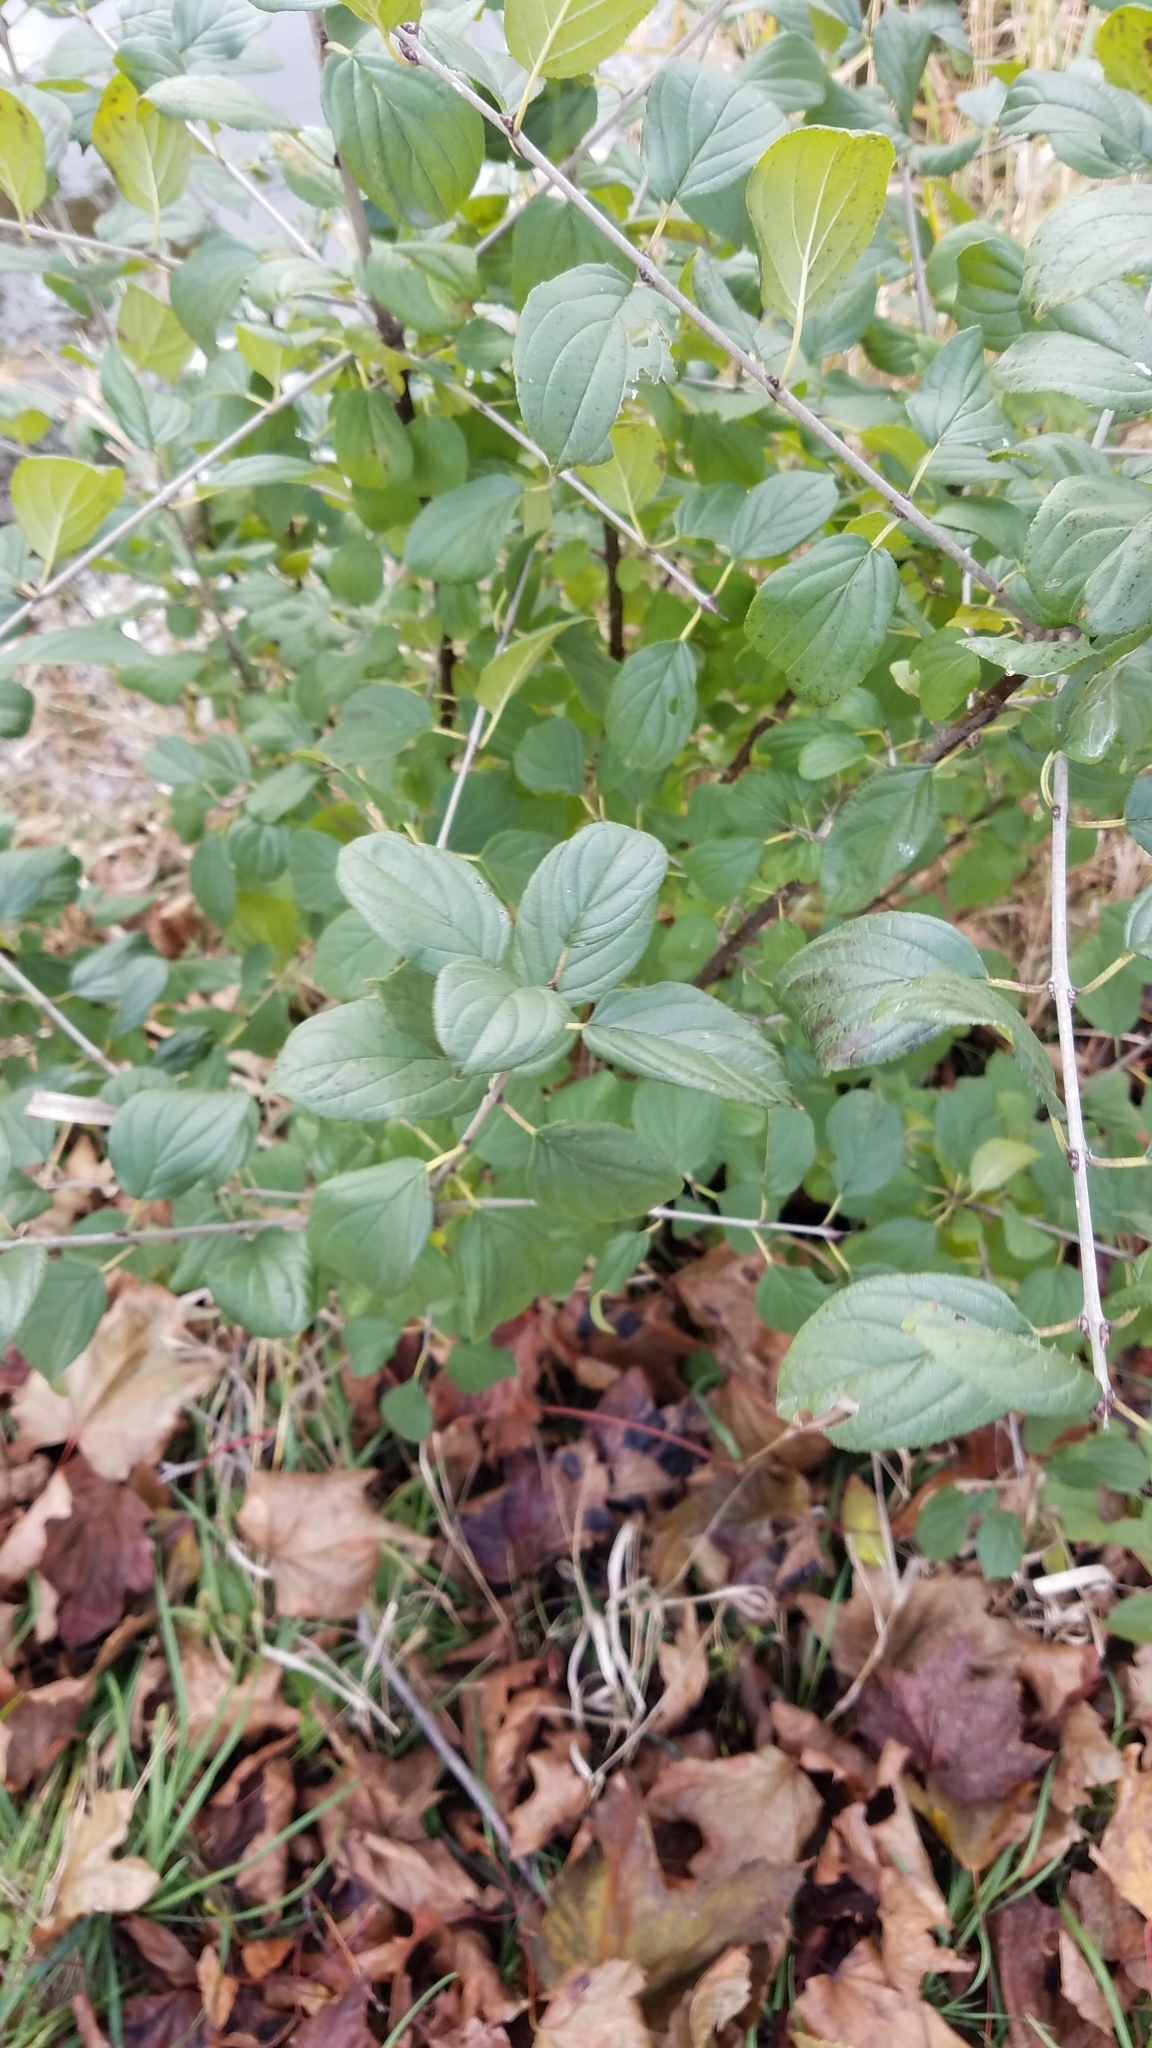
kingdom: Plantae
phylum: Tracheophyta
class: Magnoliopsida
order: Rosales
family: Rhamnaceae
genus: Rhamnus
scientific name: Rhamnus cathartica
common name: Common buckthorn
